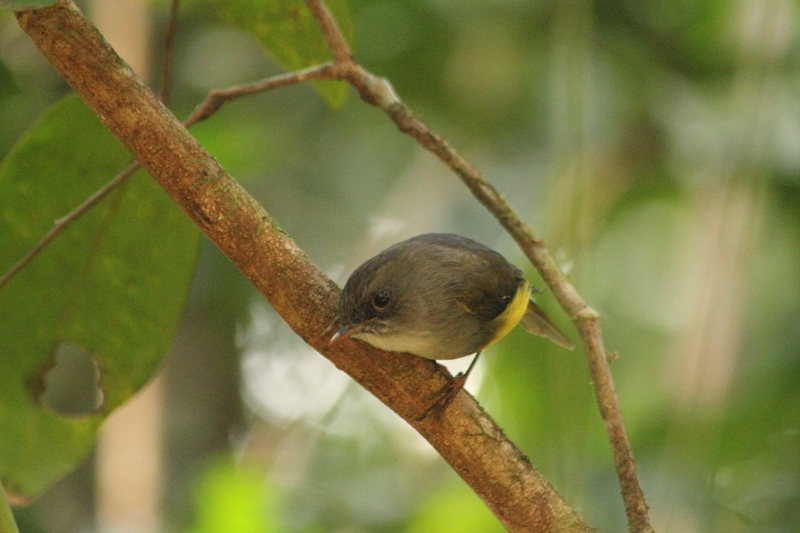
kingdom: Animalia
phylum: Chordata
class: Aves
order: Passeriformes
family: Petroicidae
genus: Microeca
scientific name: Microeca flaviventris
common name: Yellow-bellied flyrobin
